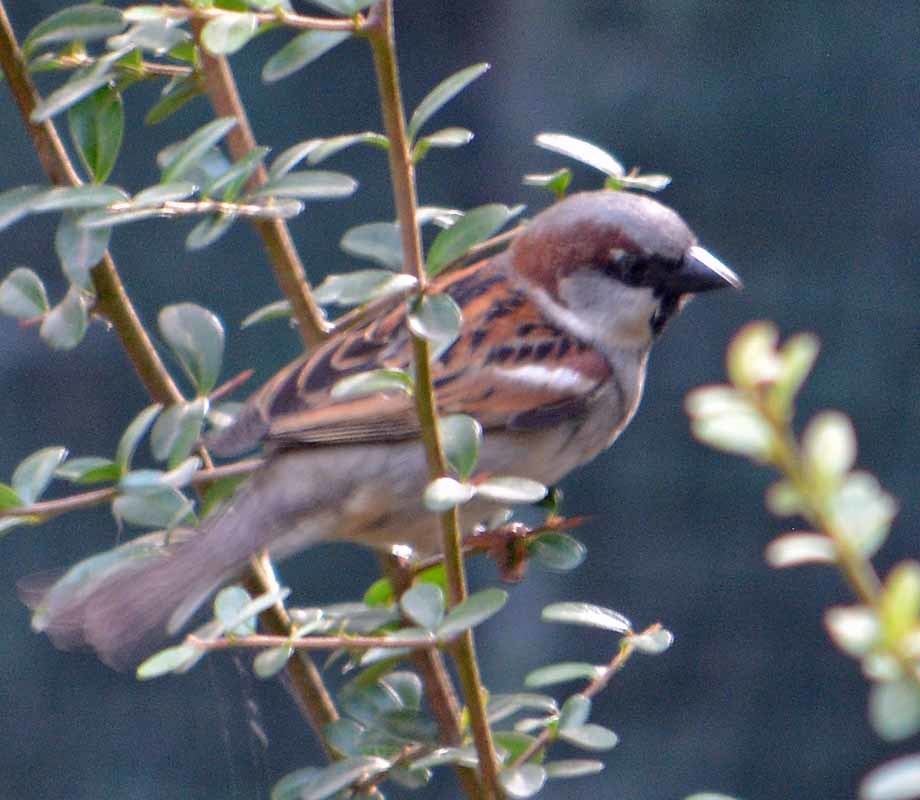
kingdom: Animalia
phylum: Chordata
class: Aves
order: Passeriformes
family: Passeridae
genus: Passer
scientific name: Passer domesticus
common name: House sparrow
